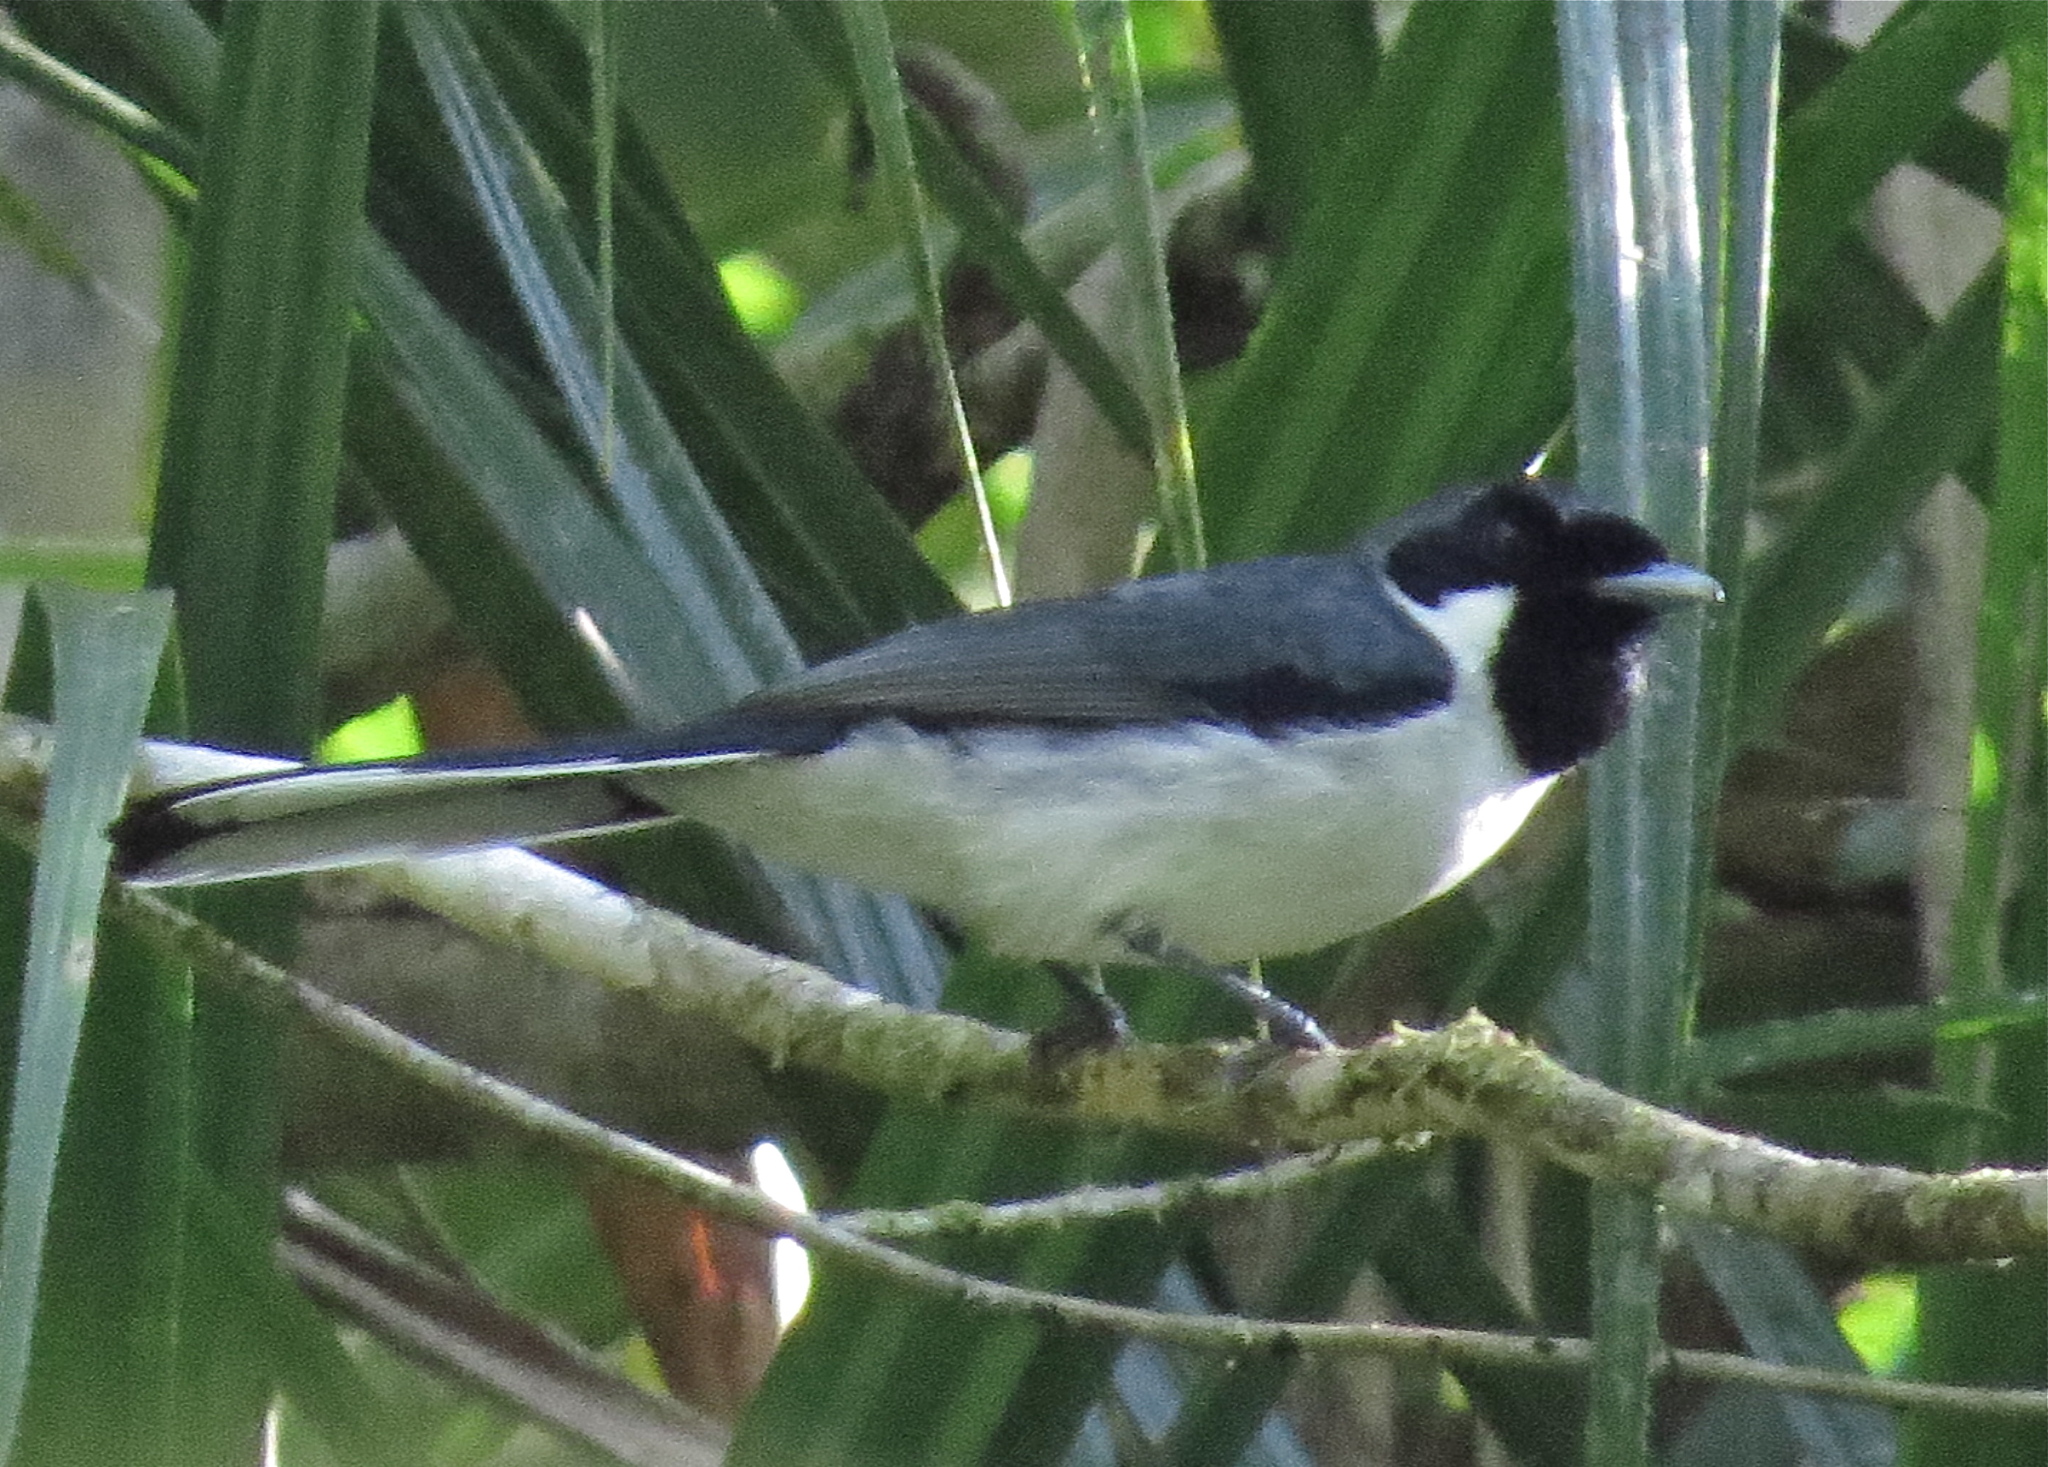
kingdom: Animalia
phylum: Chordata
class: Aves
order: Passeriformes
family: Monarchidae
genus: Symposiachrus
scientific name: Symposiachrus sacerdotum
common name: Flores monarch
